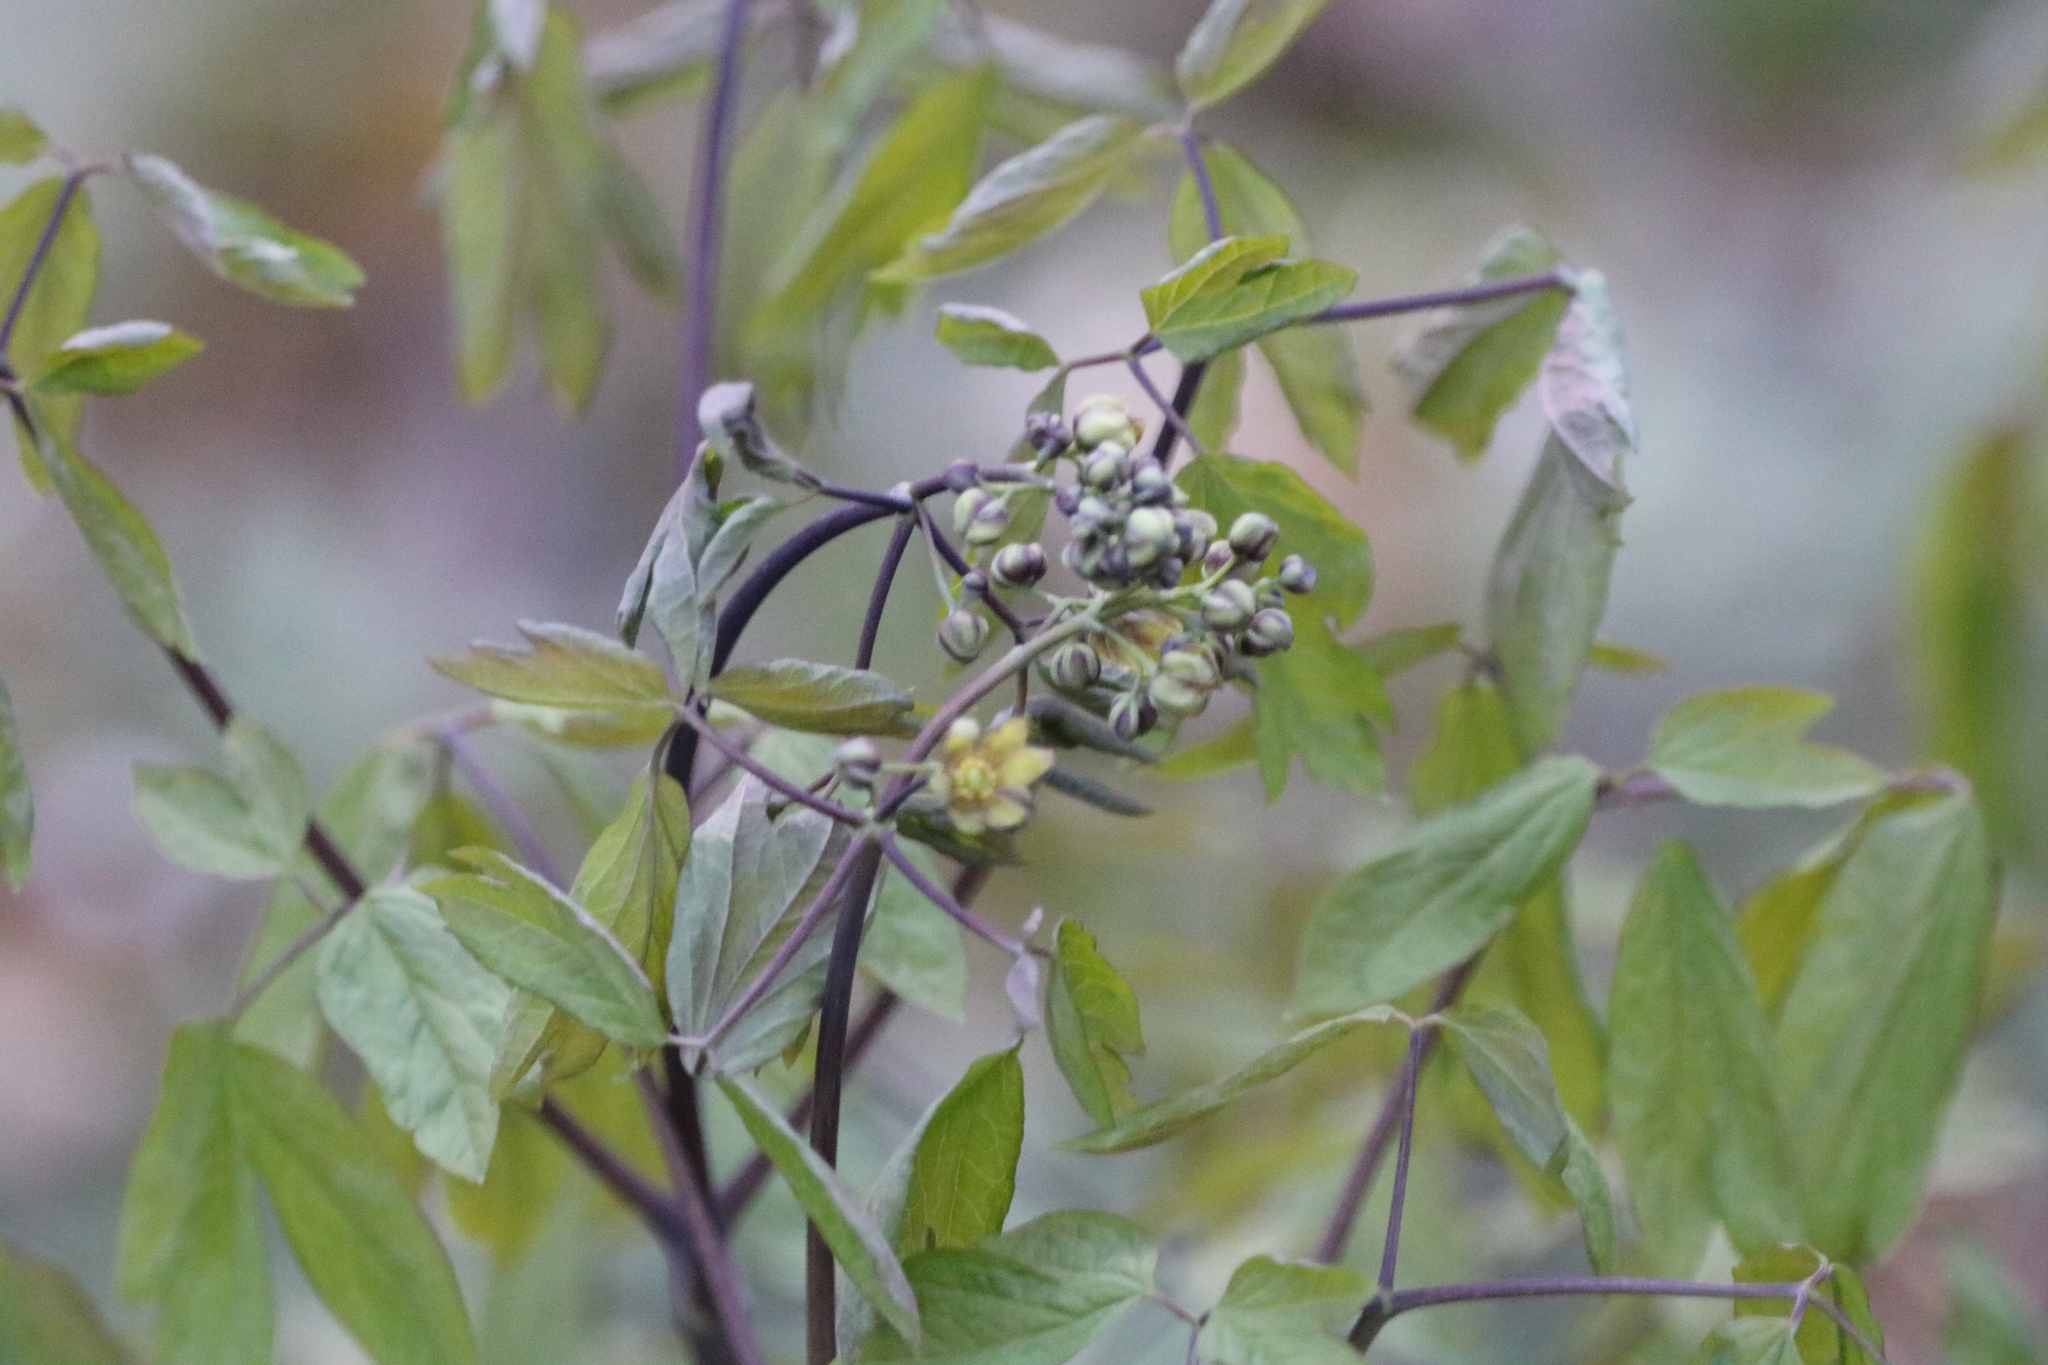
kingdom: Plantae
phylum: Tracheophyta
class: Magnoliopsida
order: Ranunculales
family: Berberidaceae
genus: Caulophyllum
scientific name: Caulophyllum giganteum
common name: Blue cohosh
